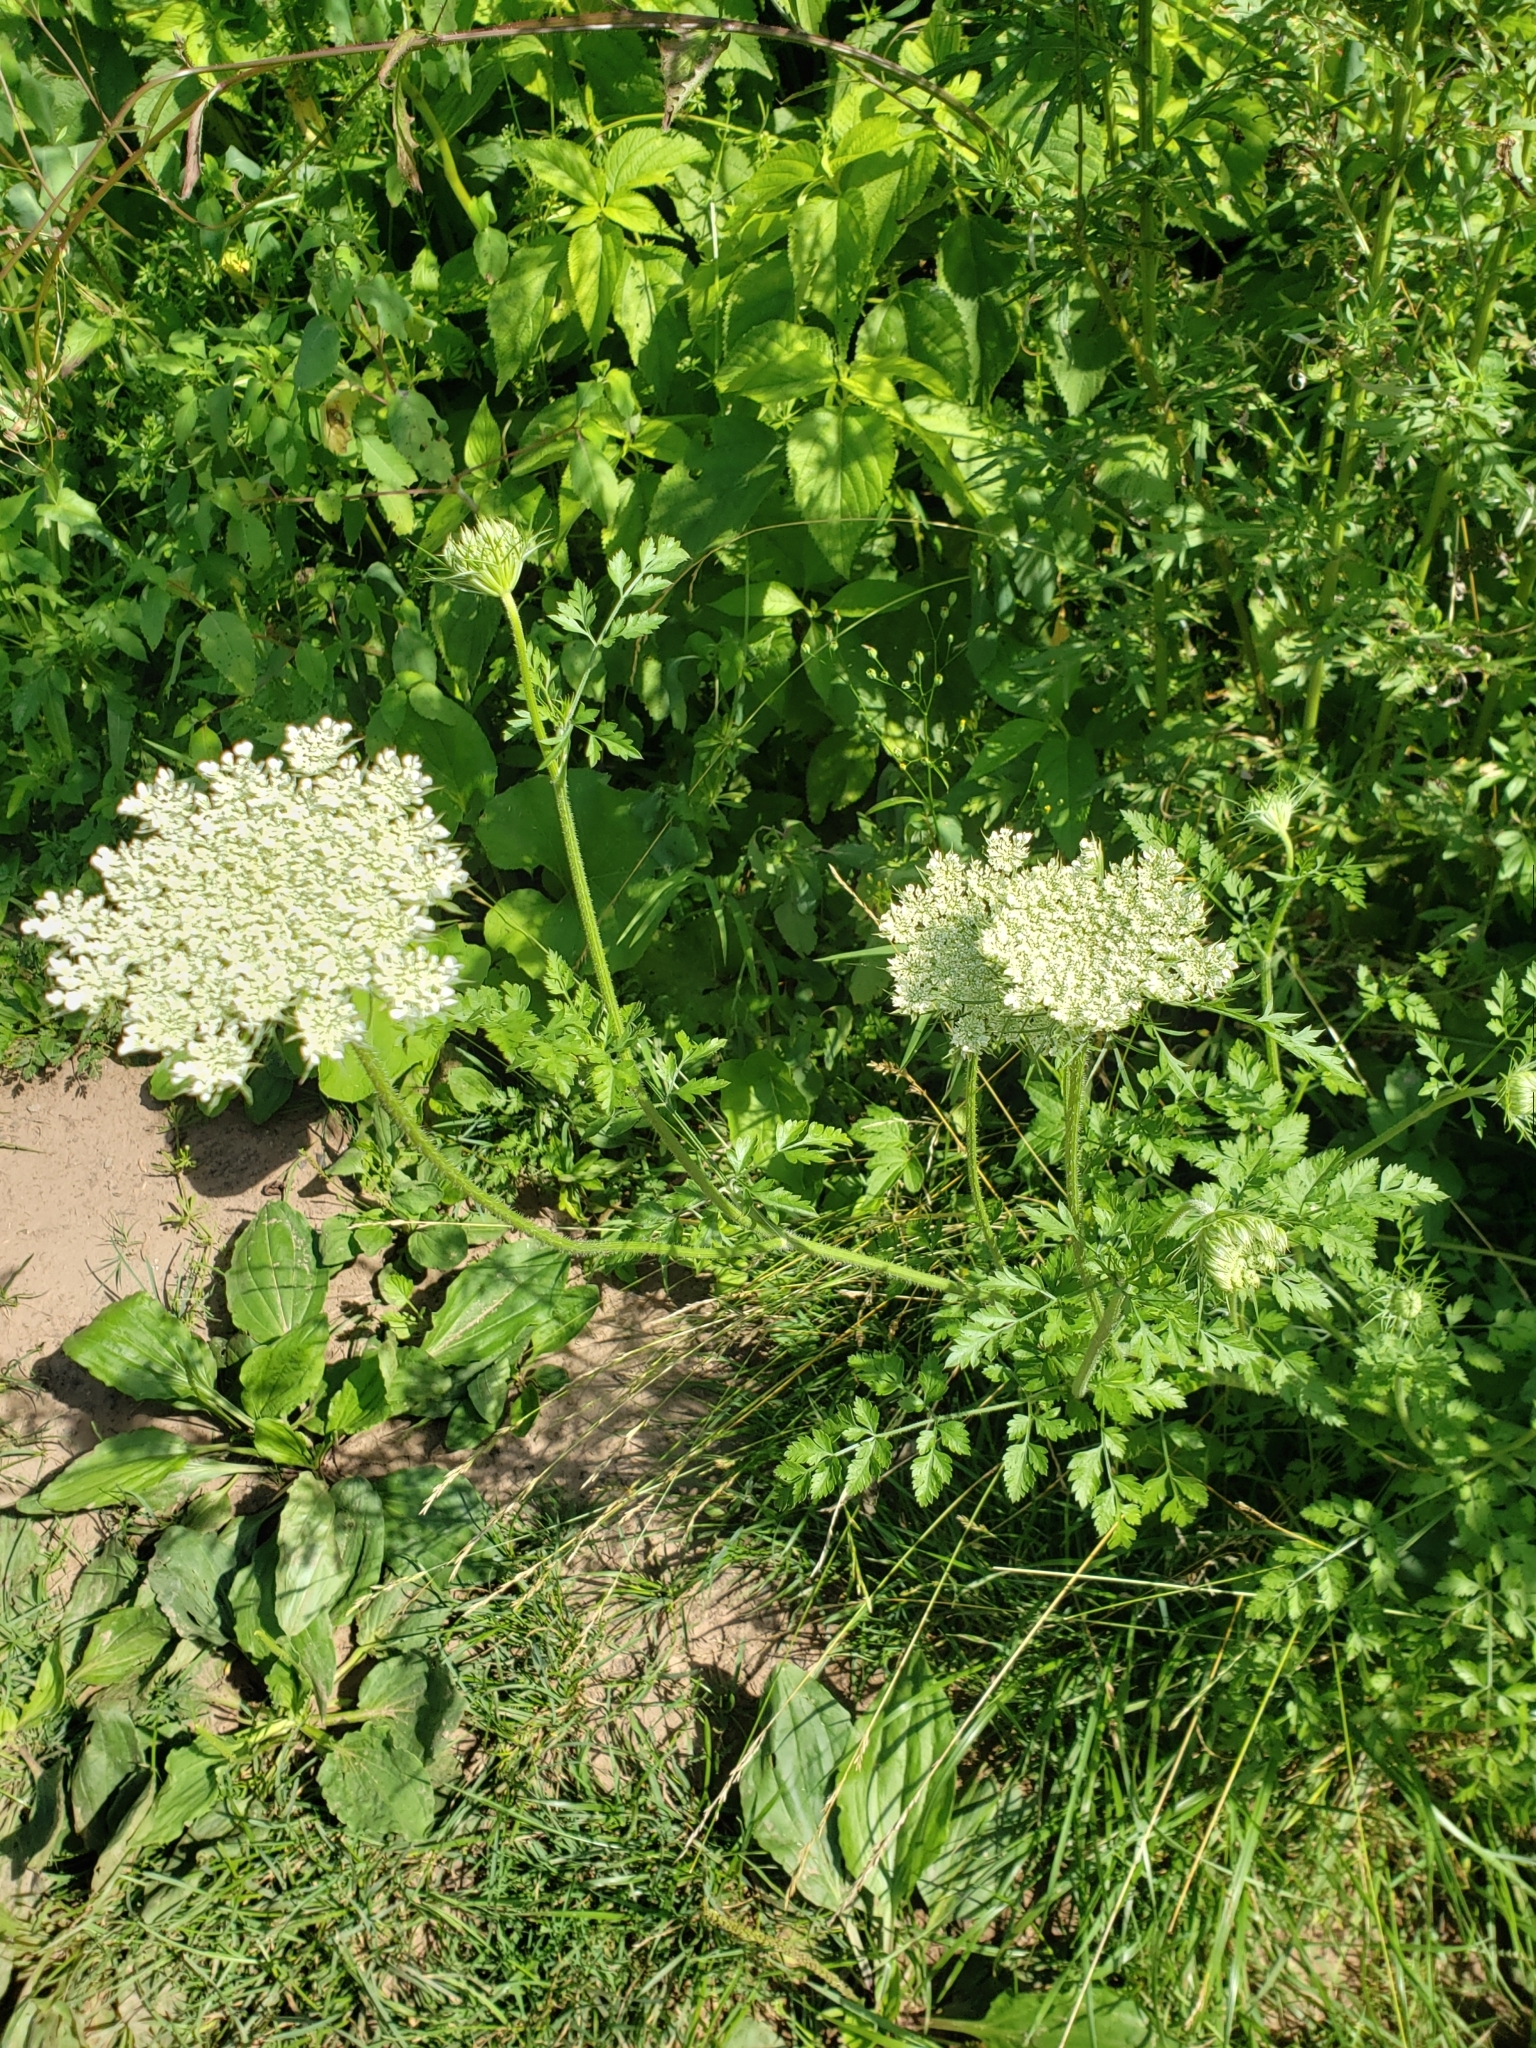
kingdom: Plantae
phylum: Tracheophyta
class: Magnoliopsida
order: Apiales
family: Apiaceae
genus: Daucus
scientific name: Daucus carota
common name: Wild carrot
